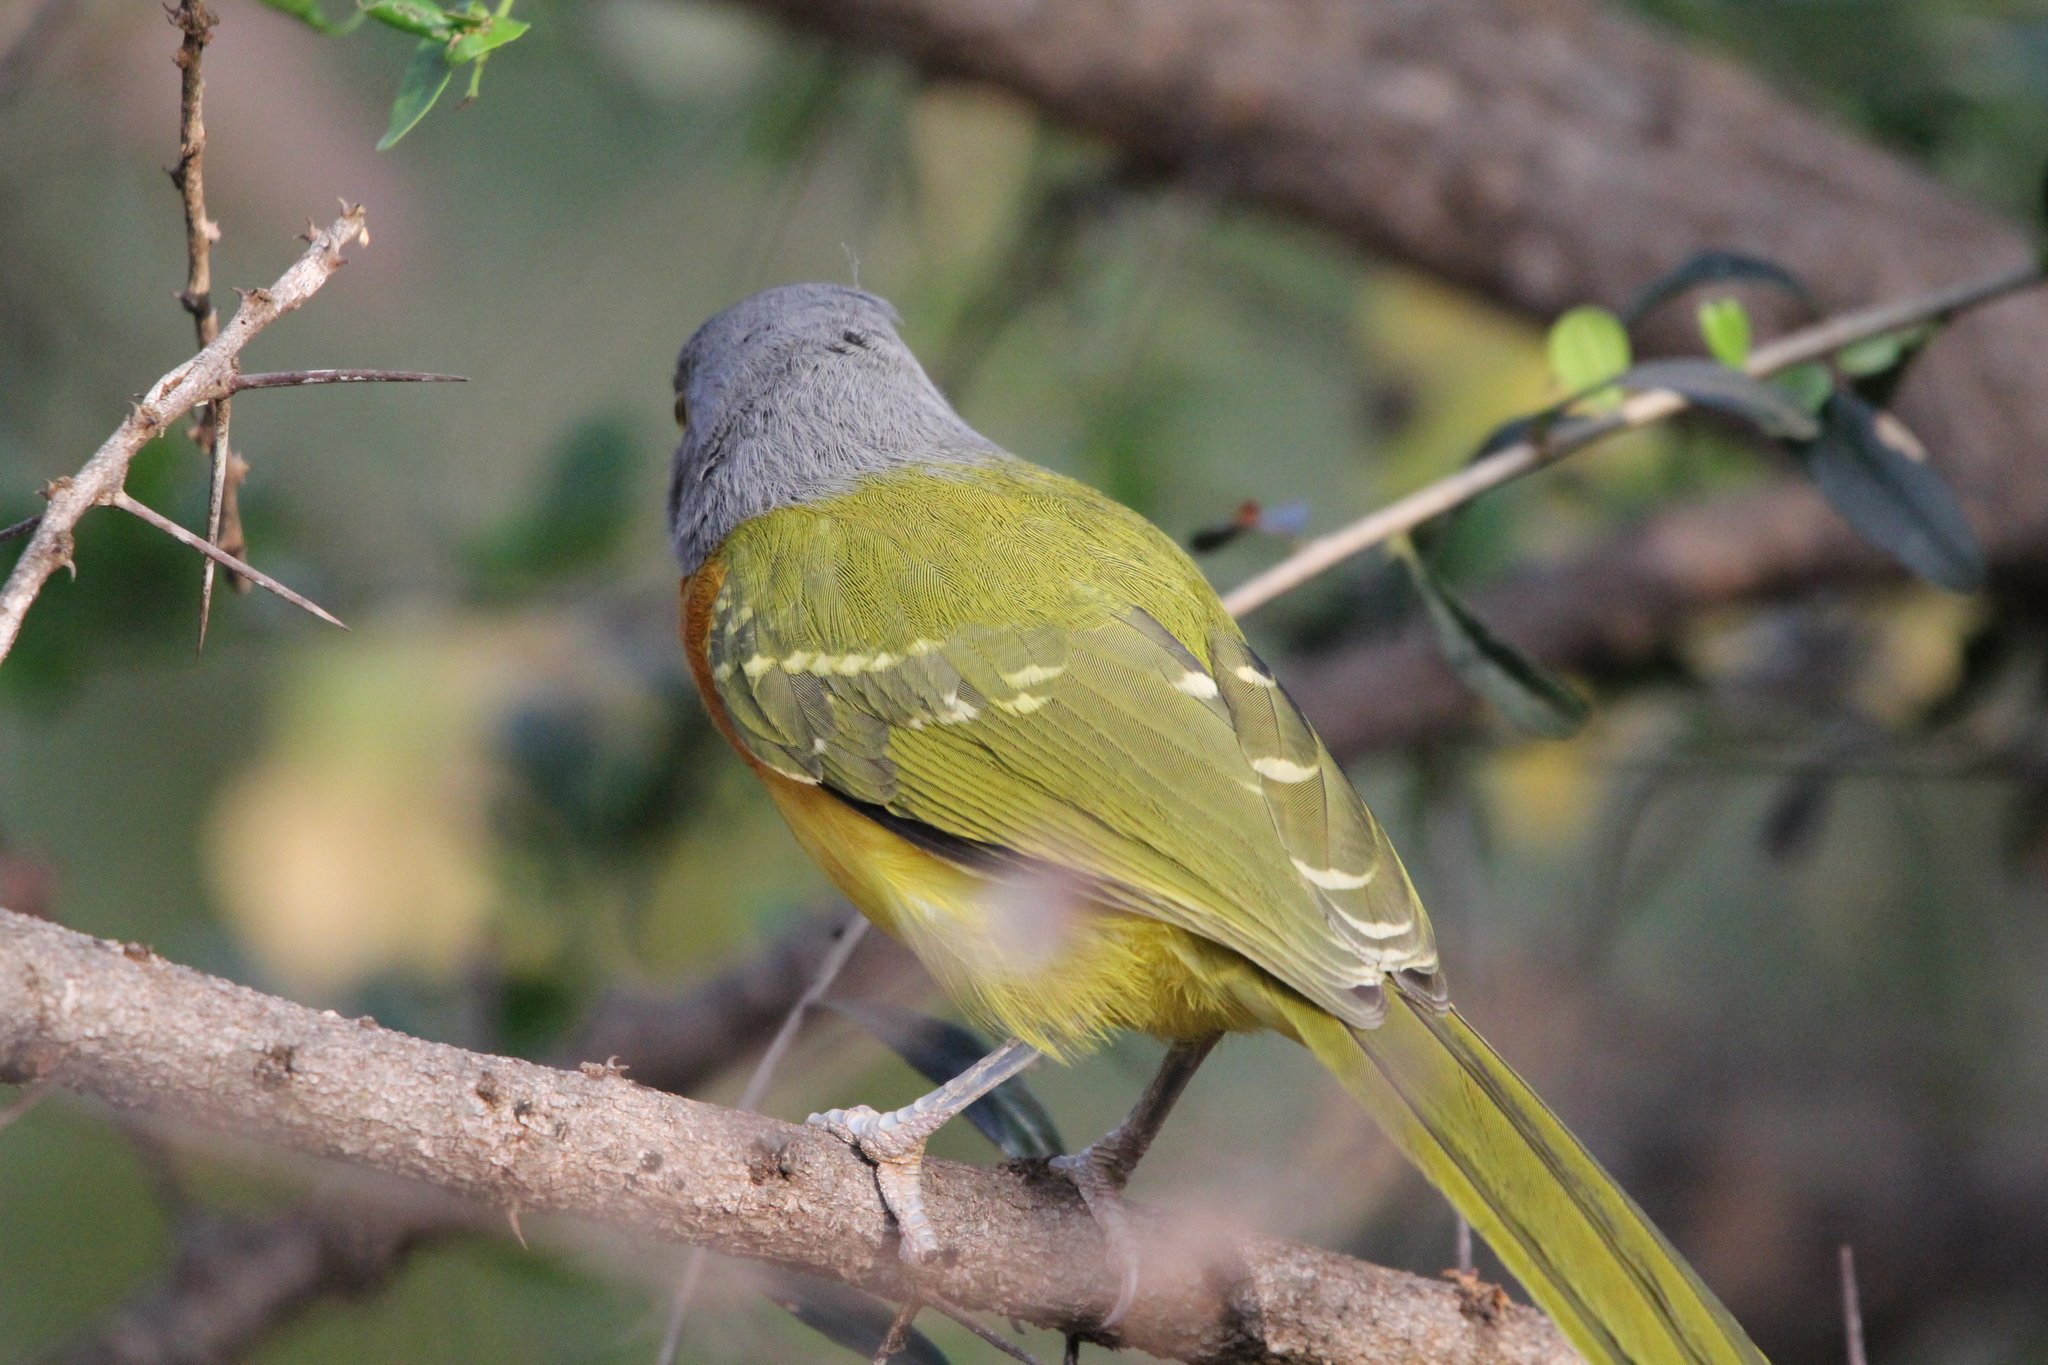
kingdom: Animalia
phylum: Chordata
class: Aves
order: Passeriformes
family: Malaconotidae
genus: Malaconotus
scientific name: Malaconotus blanchoti
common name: Grey-headed bushshrike
